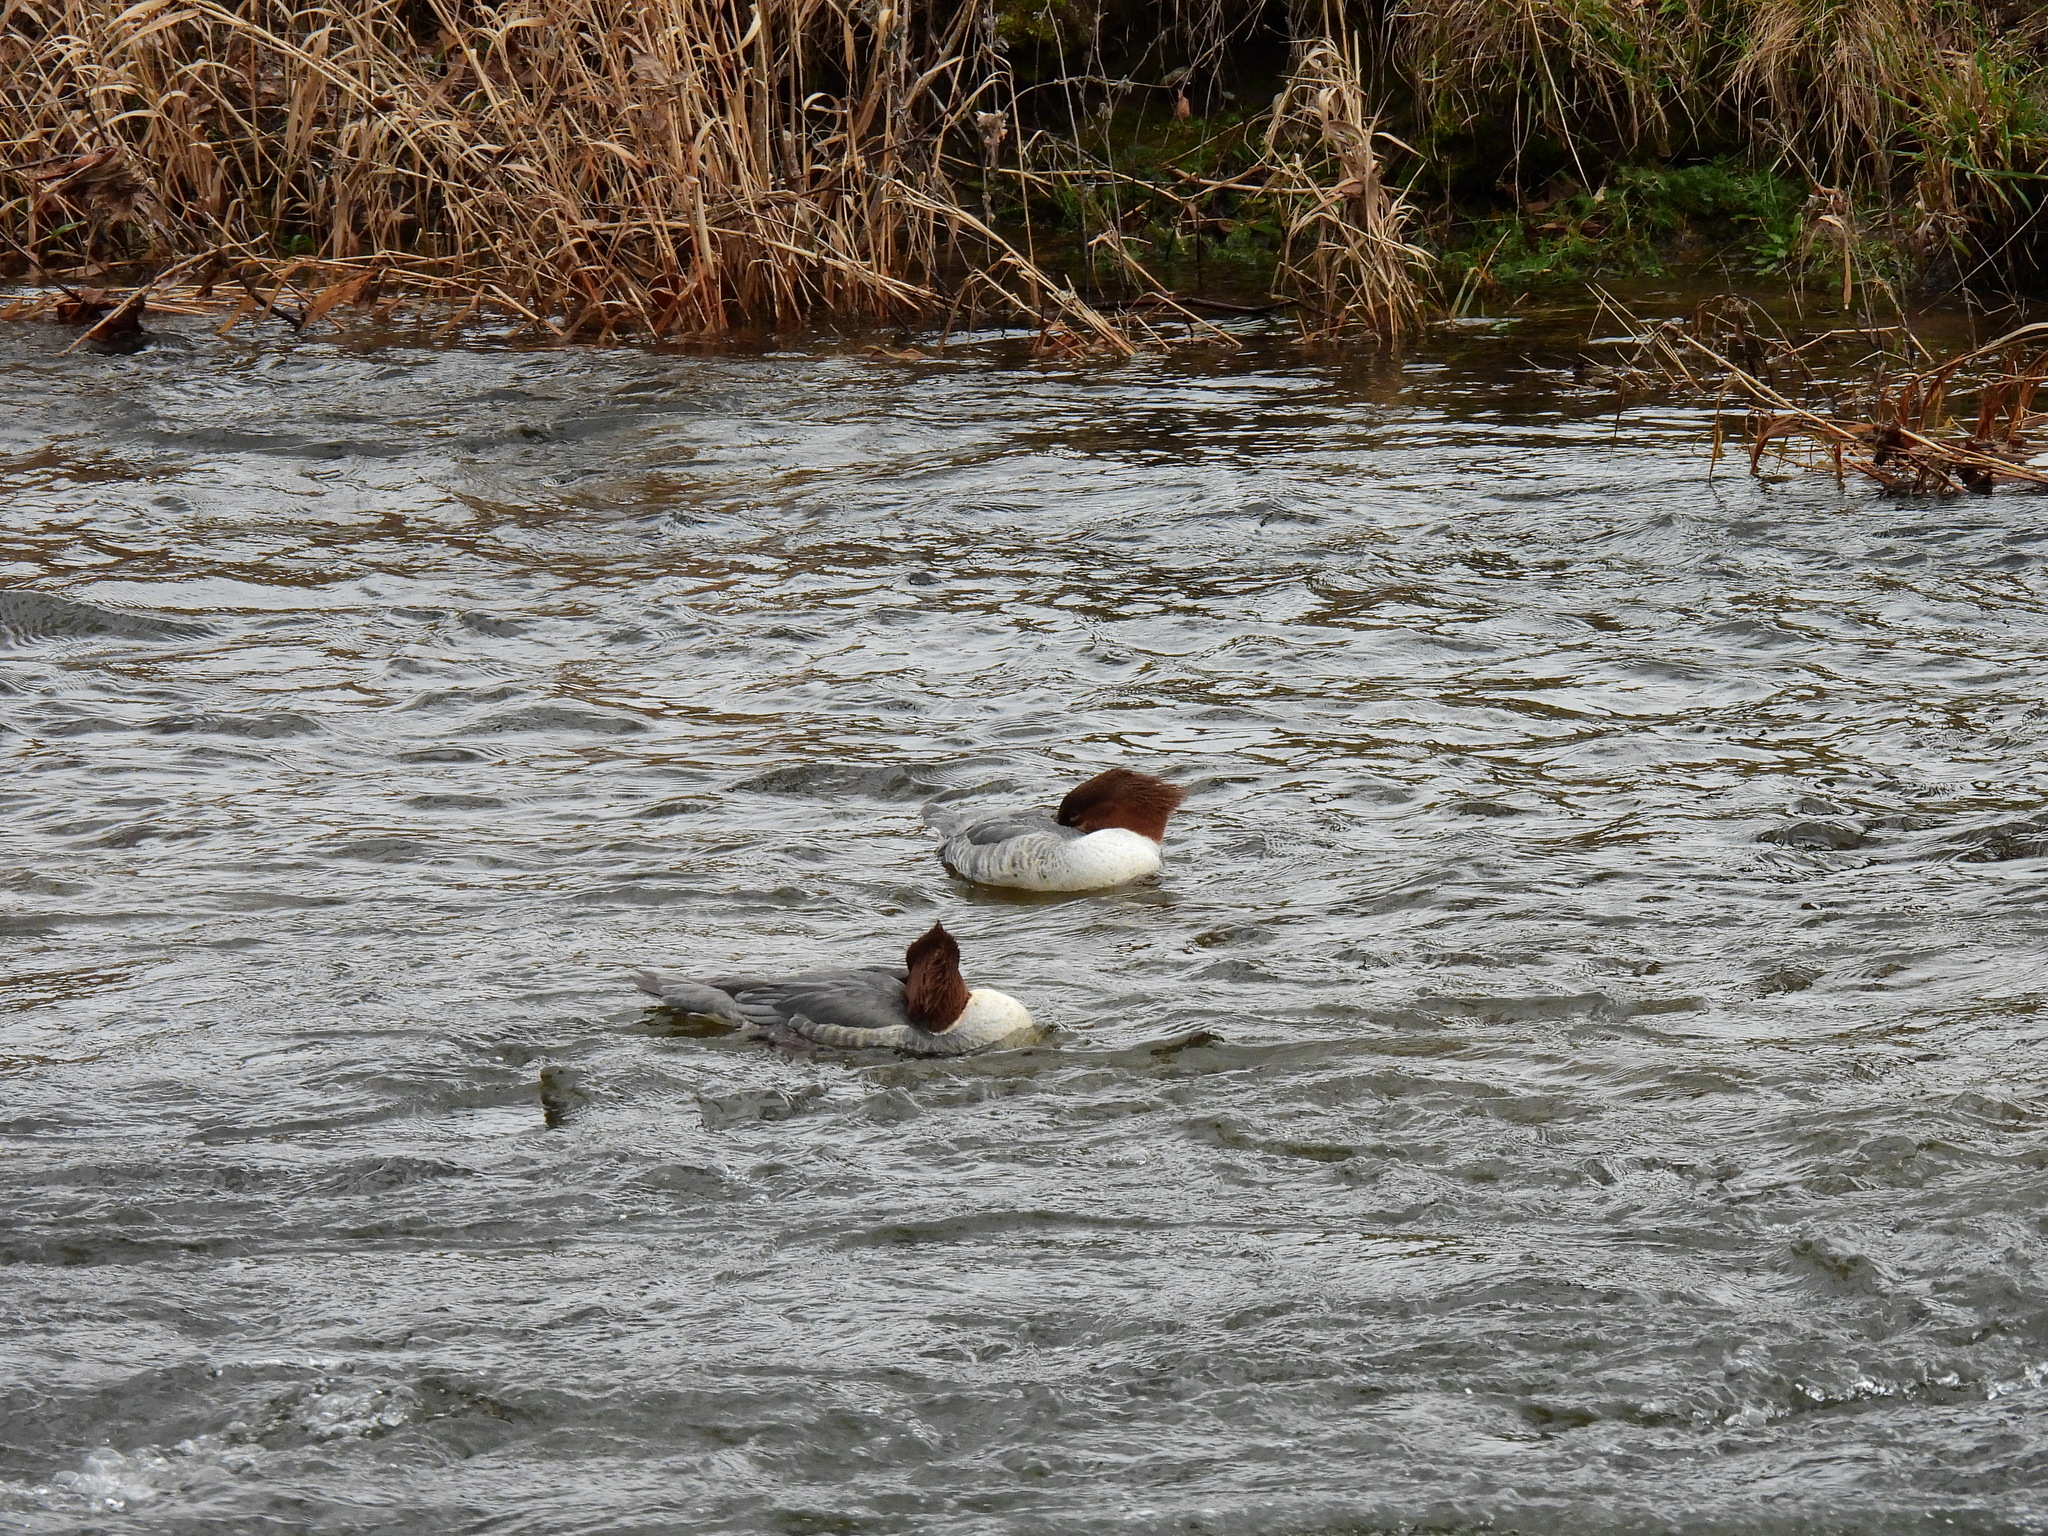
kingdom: Animalia
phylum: Chordata
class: Aves
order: Anseriformes
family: Anatidae
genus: Mergus
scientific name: Mergus merganser
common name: Common merganser
